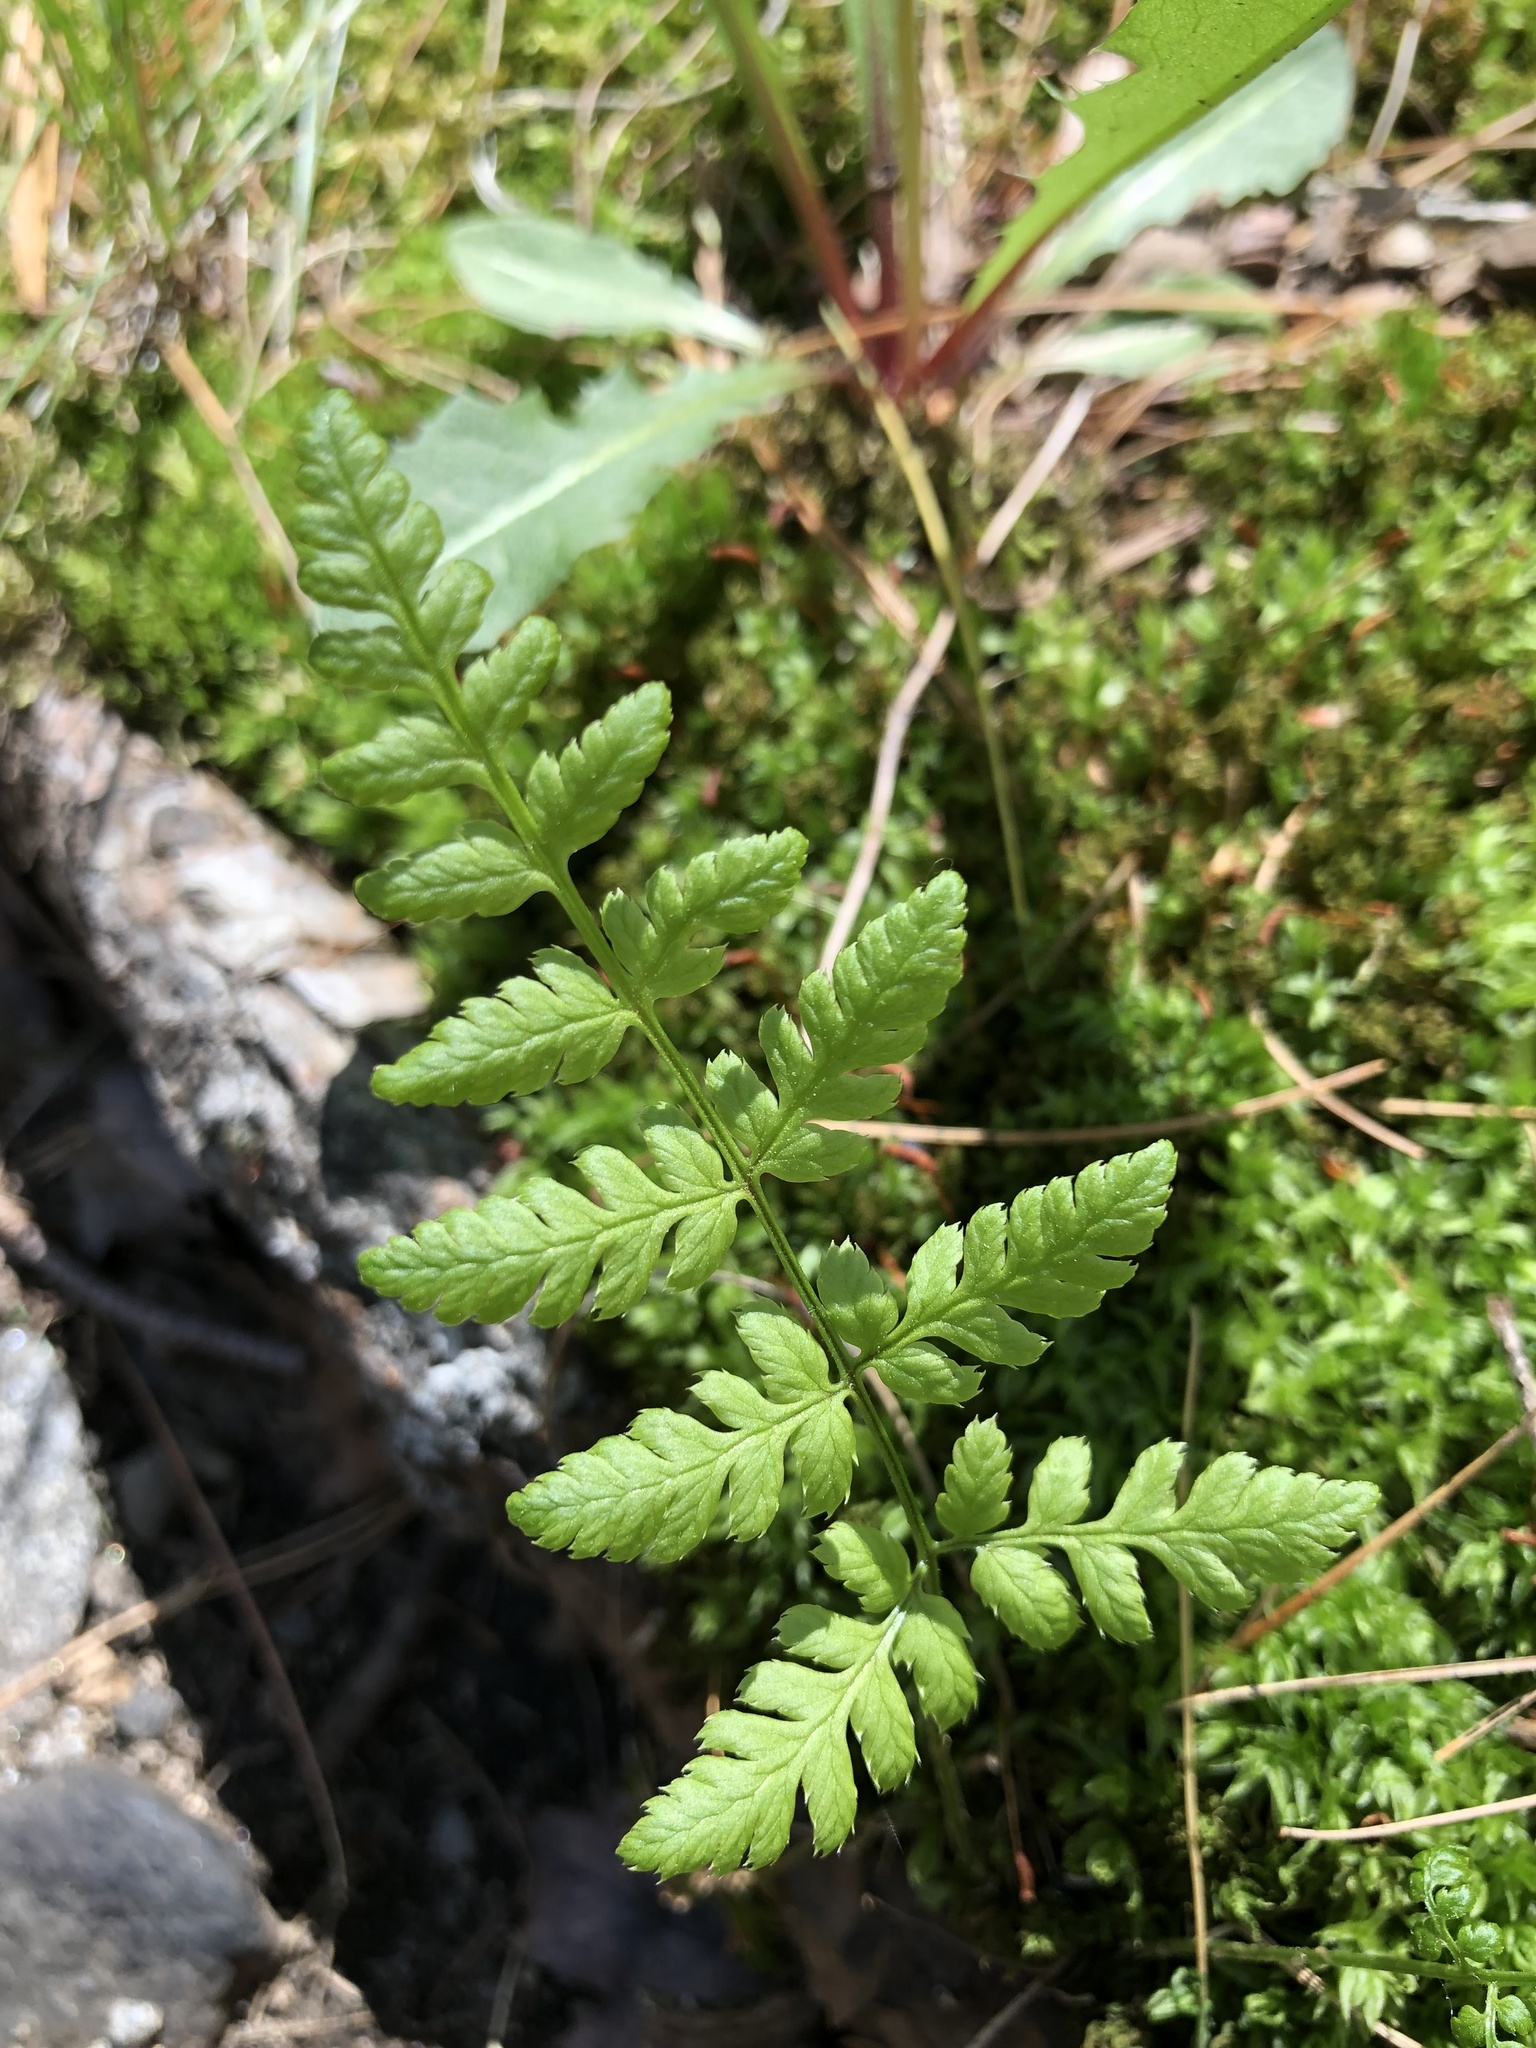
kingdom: Plantae
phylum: Tracheophyta
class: Polypodiopsida
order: Polypodiales
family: Dryopteridaceae
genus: Dryopteris
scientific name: Dryopteris intermedia
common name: Evergreen wood fern
